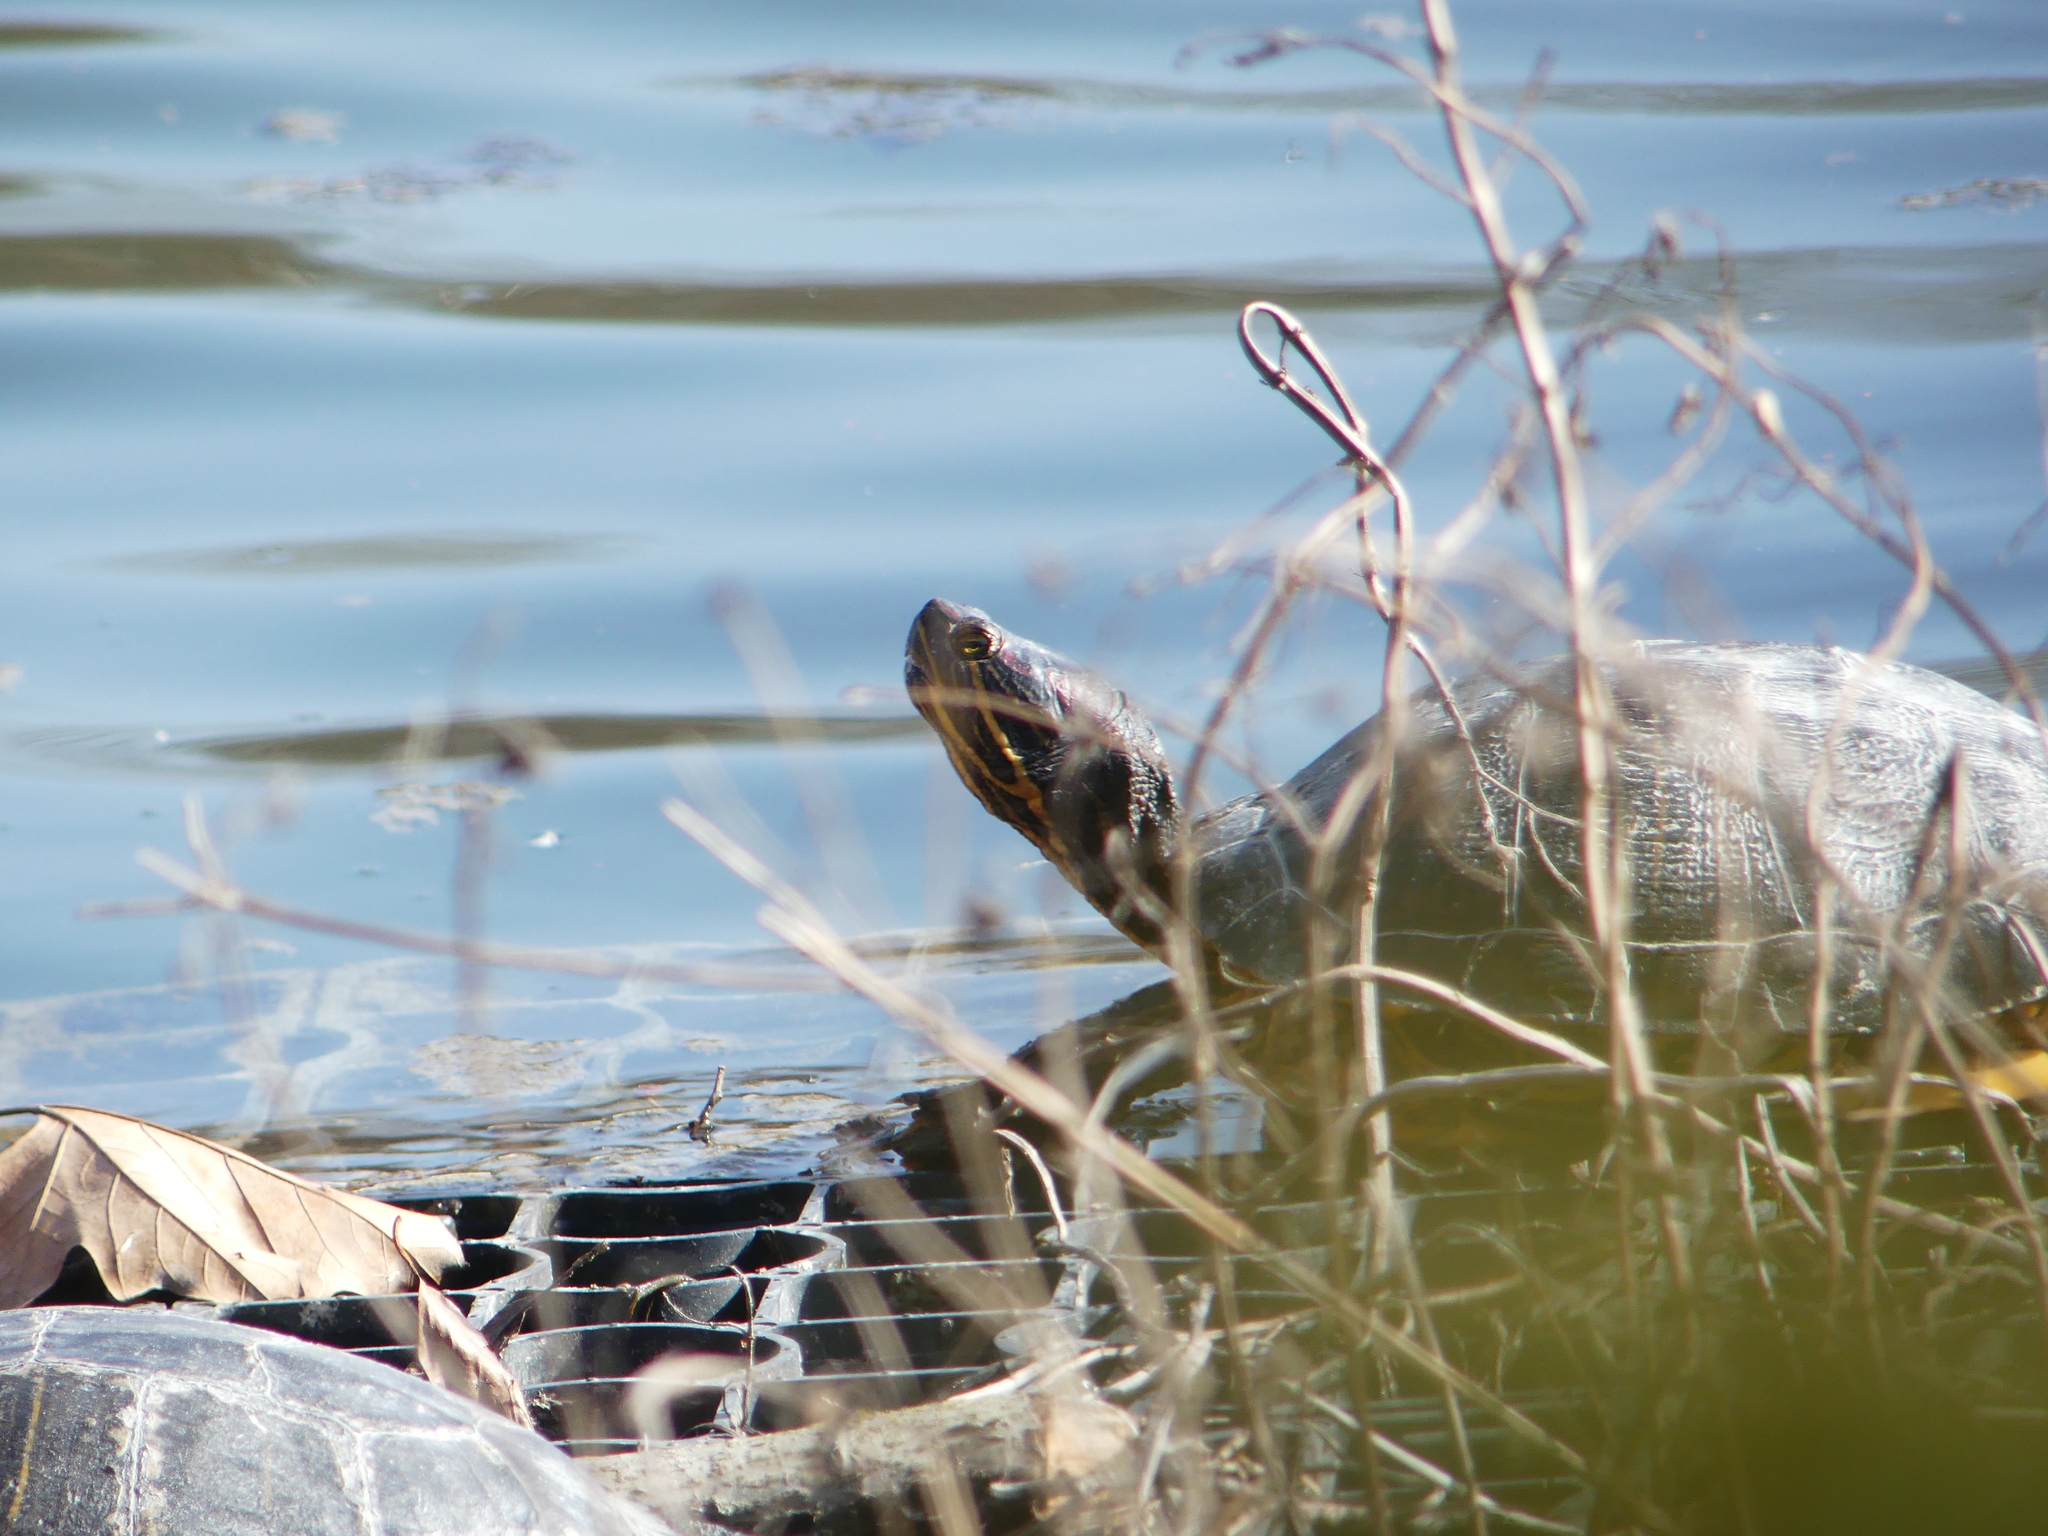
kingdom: Animalia
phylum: Chordata
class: Testudines
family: Emydidae
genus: Trachemys
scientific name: Trachemys scripta
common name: Slider
